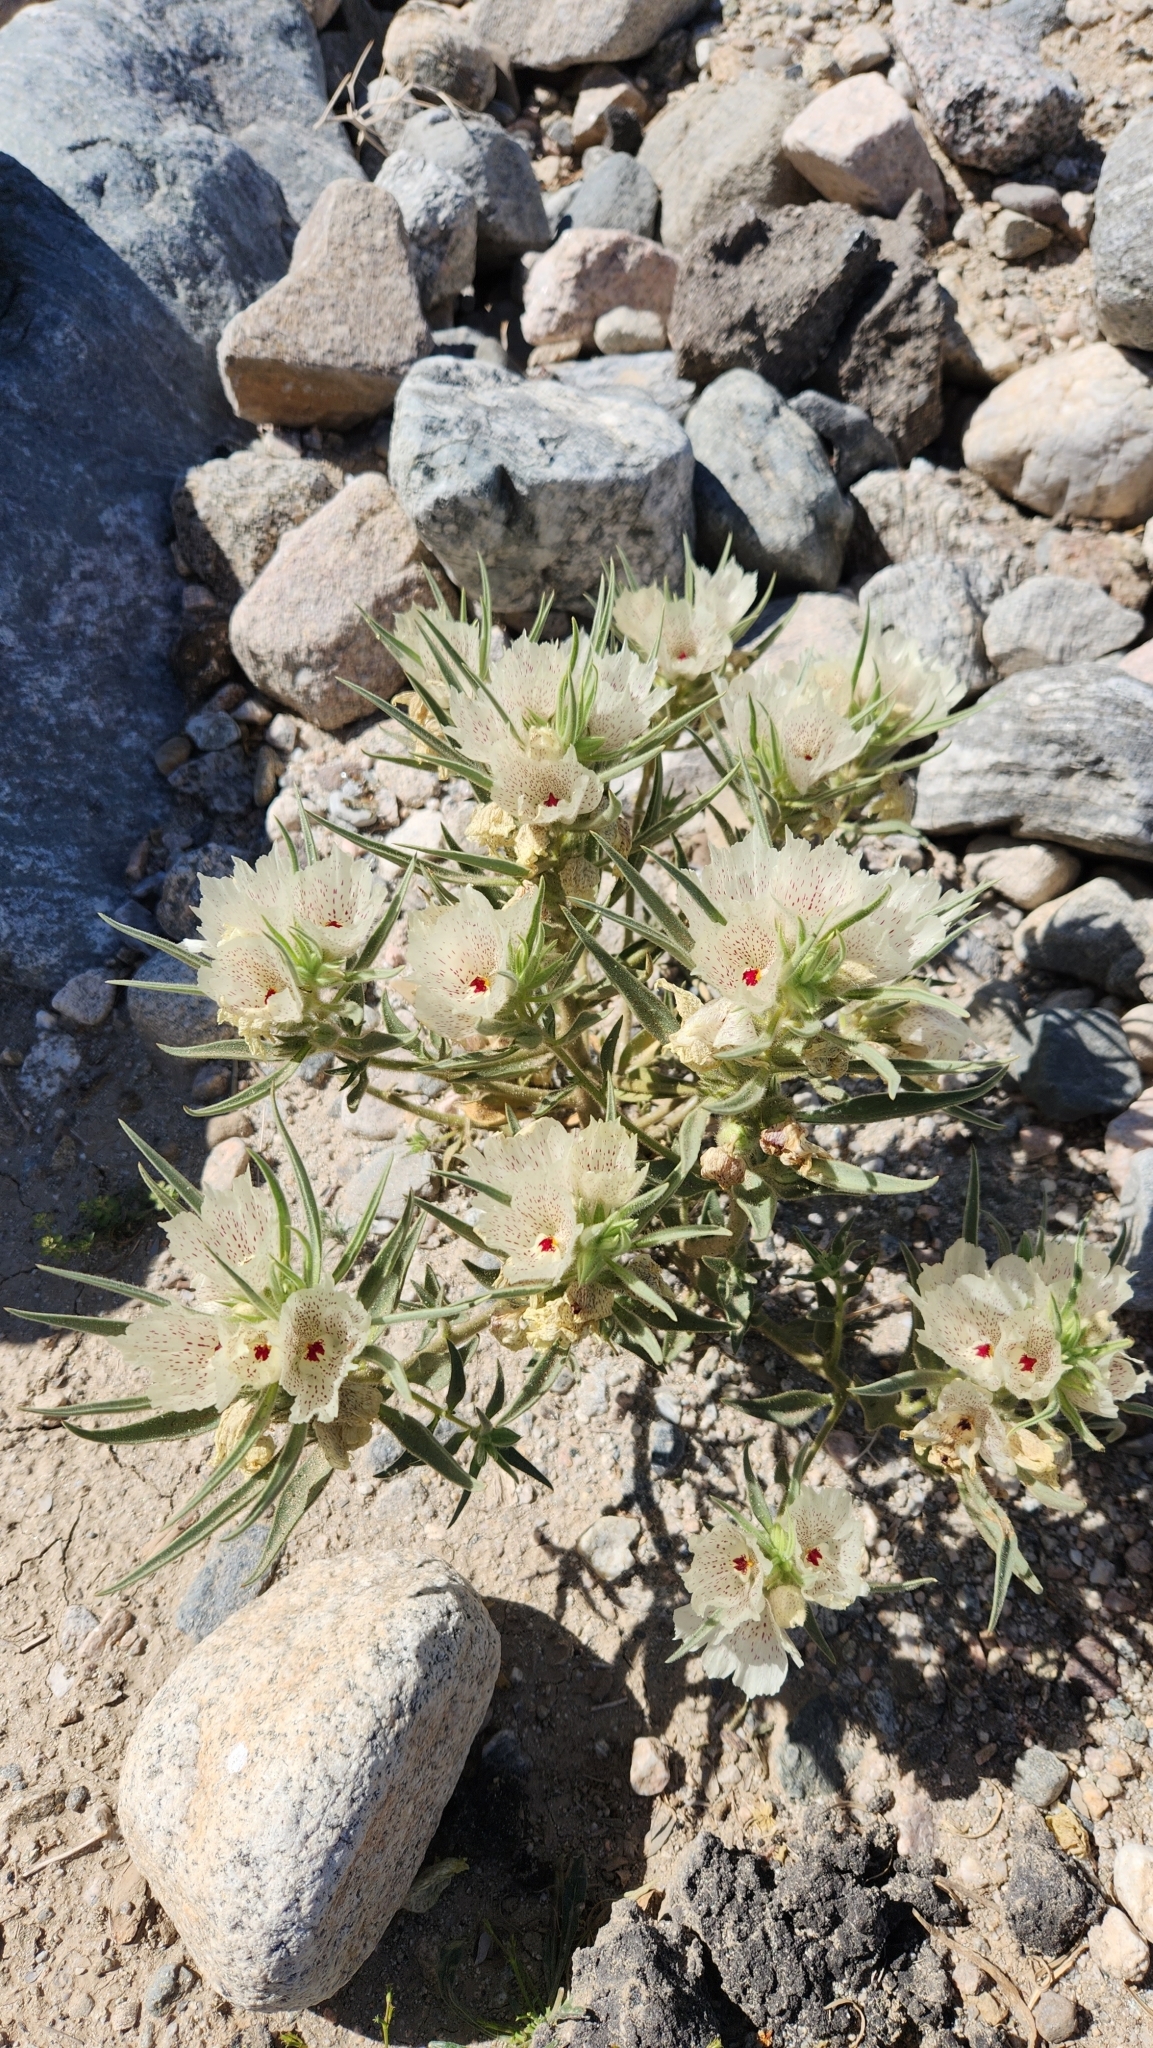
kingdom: Plantae
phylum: Tracheophyta
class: Magnoliopsida
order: Lamiales
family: Plantaginaceae
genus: Mohavea
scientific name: Mohavea confertiflora
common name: Ghost flower
